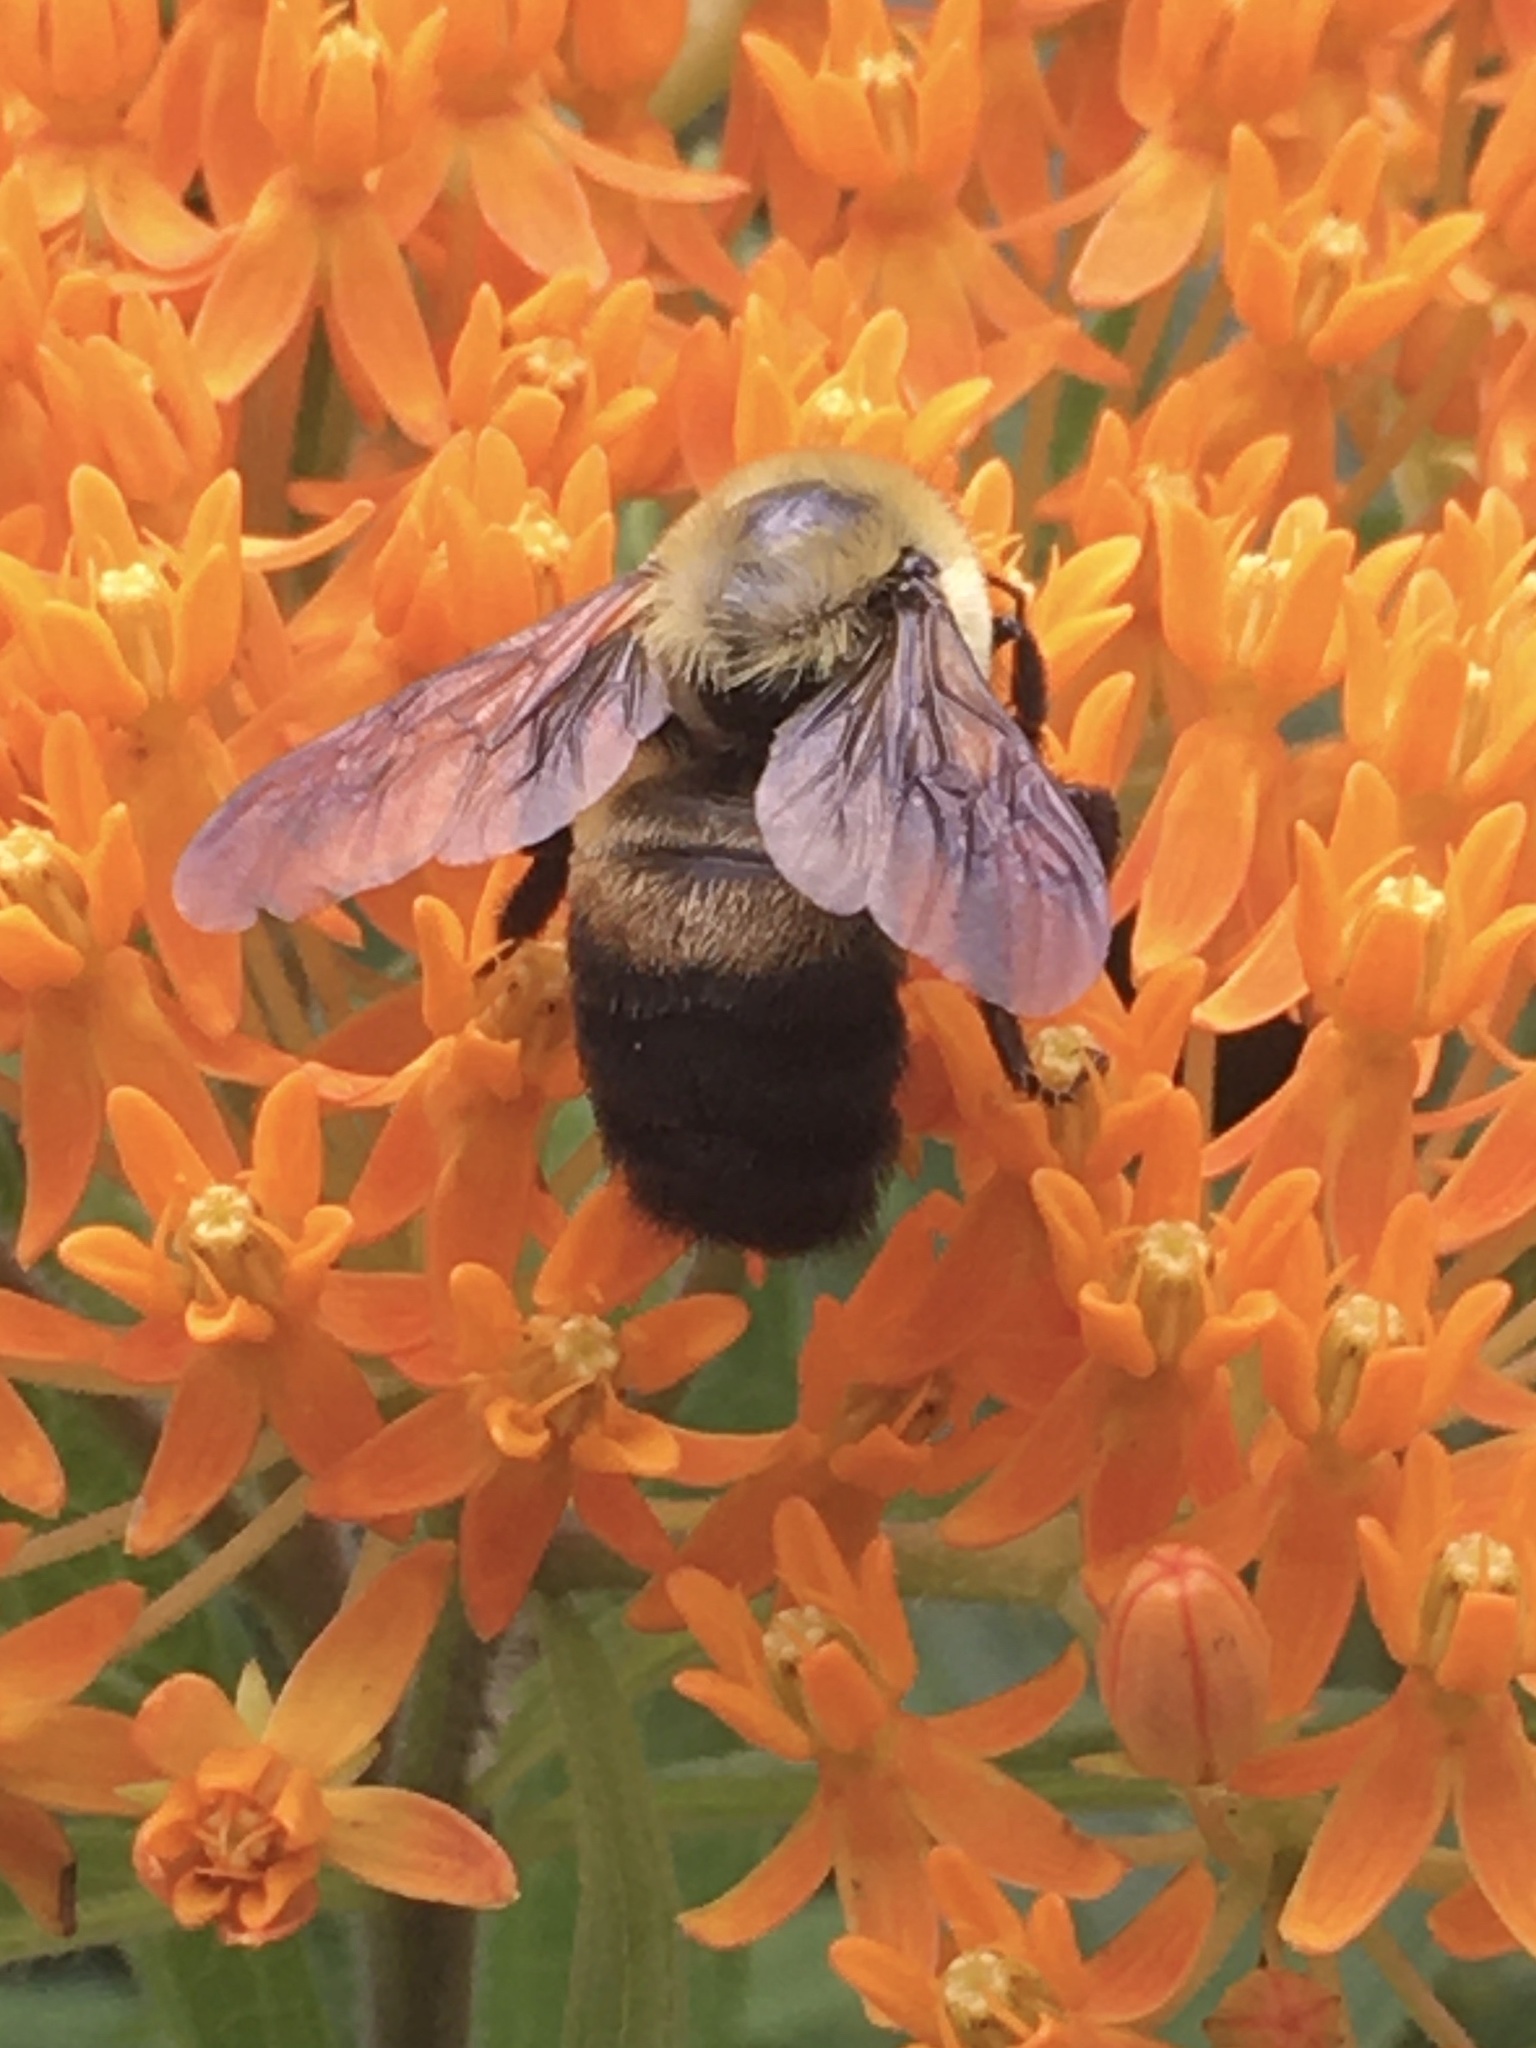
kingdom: Animalia
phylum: Arthropoda
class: Insecta
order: Hymenoptera
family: Apidae
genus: Bombus
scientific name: Bombus griseocollis
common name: Brown-belted bumble bee
